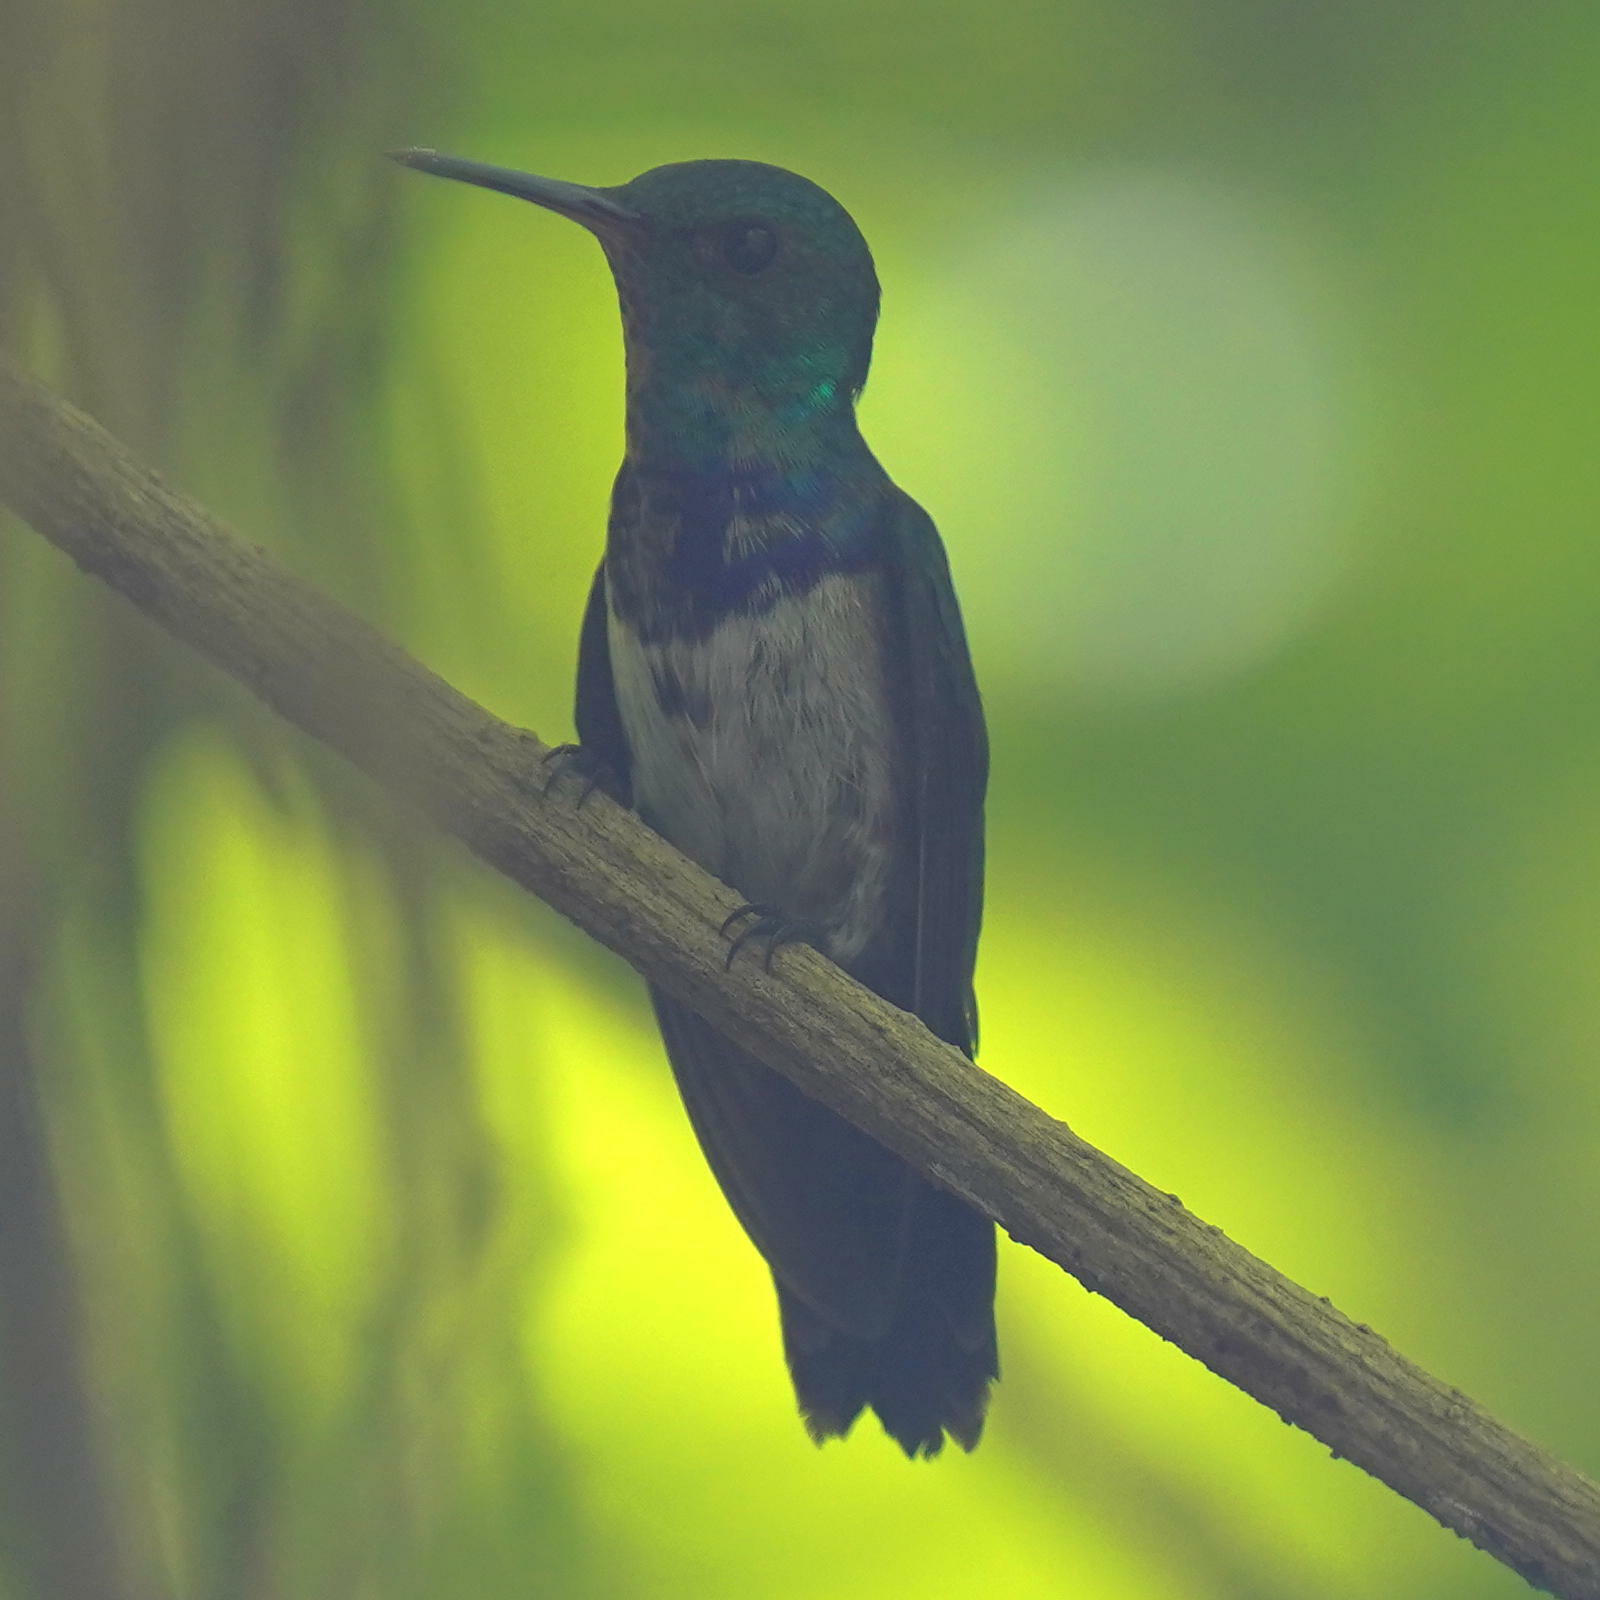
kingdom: Animalia
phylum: Chordata
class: Aves
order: Apodiformes
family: Trochilidae
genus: Polyerata
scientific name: Polyerata amabilis
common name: Blue-chested hummingbird
